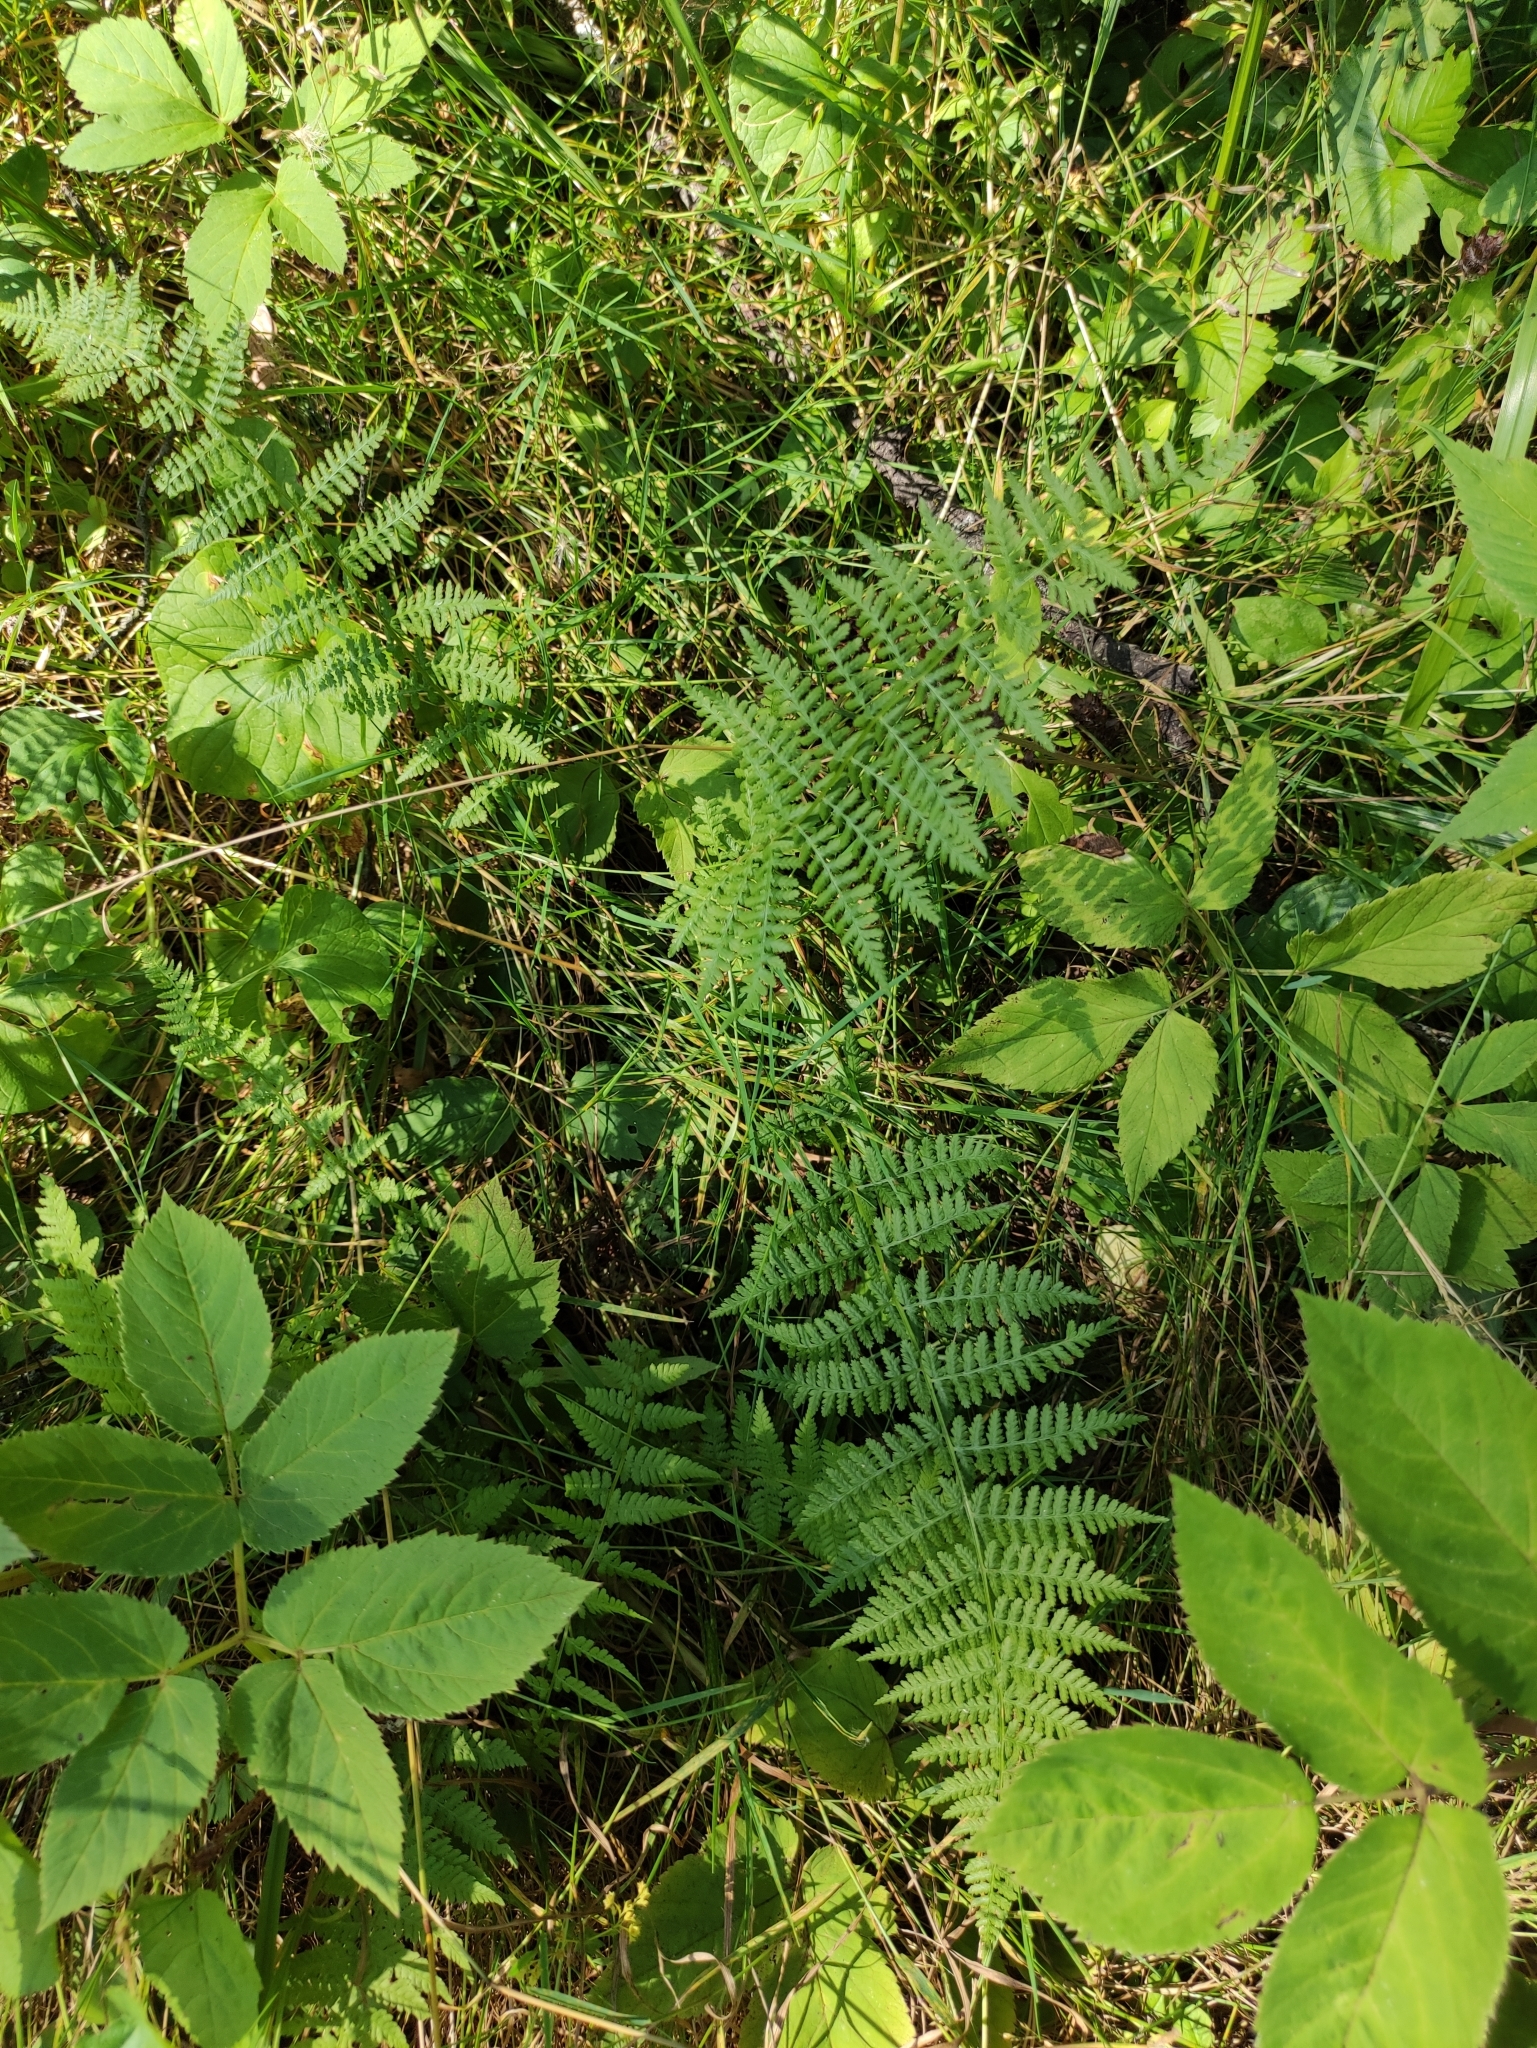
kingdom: Plantae
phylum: Tracheophyta
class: Polypodiopsida
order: Polypodiales
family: Athyriaceae
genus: Athyrium
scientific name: Athyrium filix-femina
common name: Lady fern
